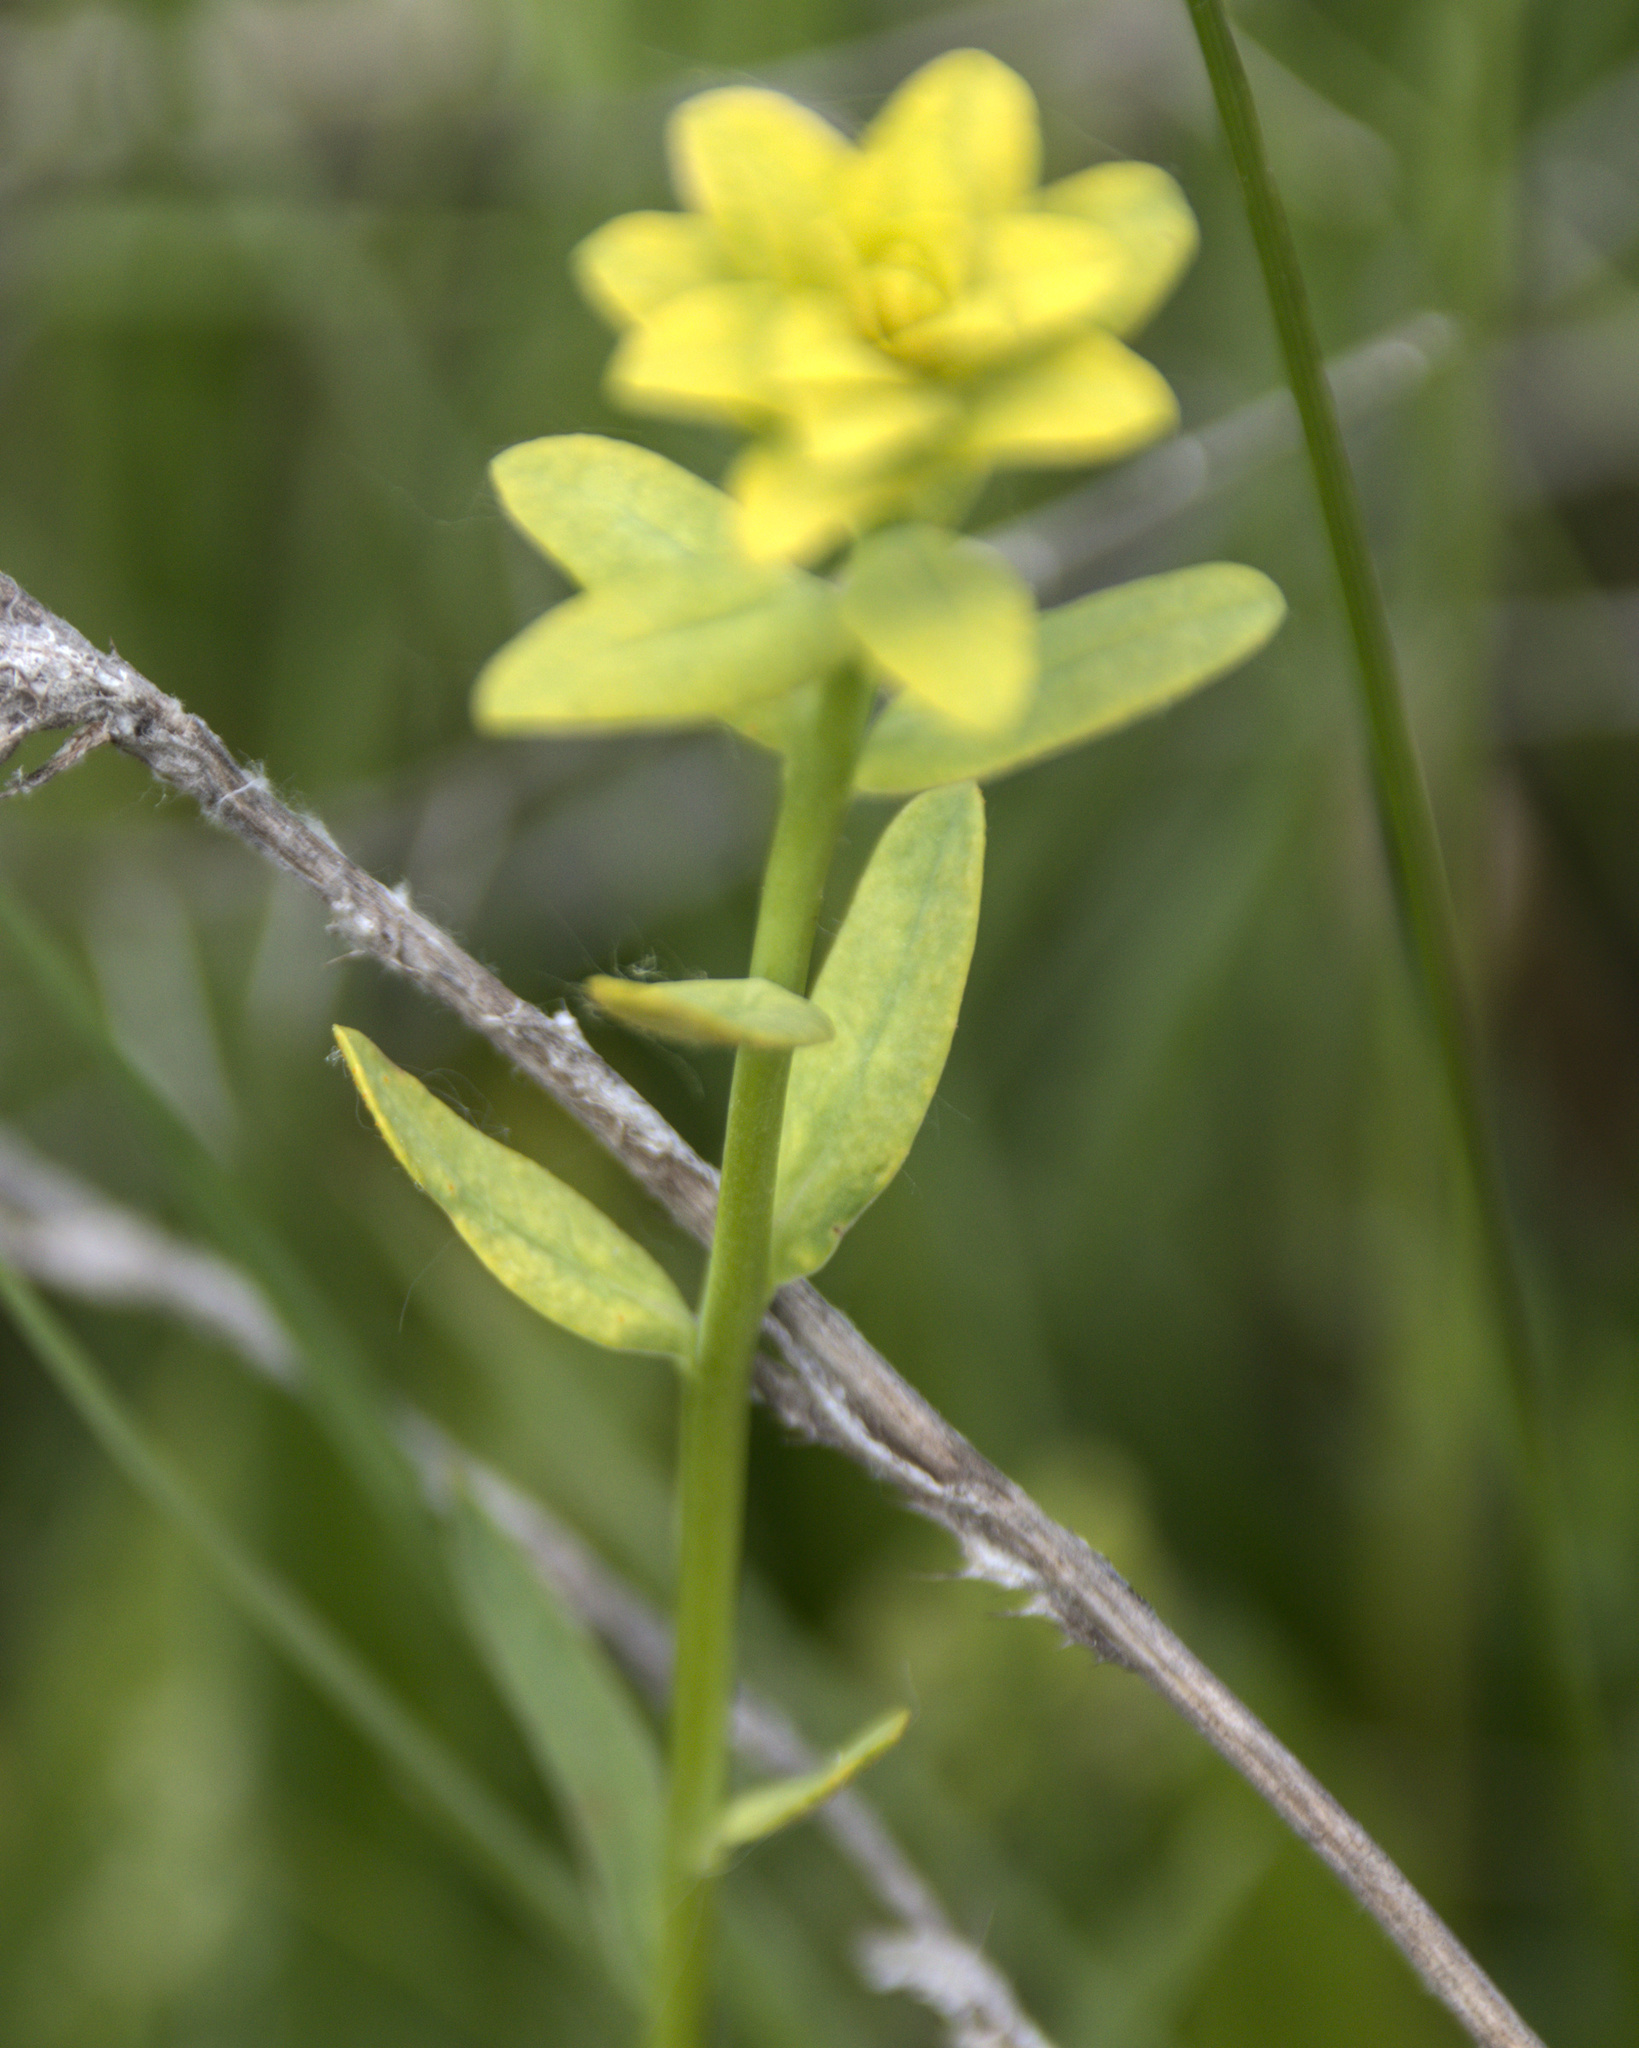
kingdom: Plantae
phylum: Tracheophyta
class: Magnoliopsida
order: Malpighiales
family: Euphorbiaceae
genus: Esula
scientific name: Esula
